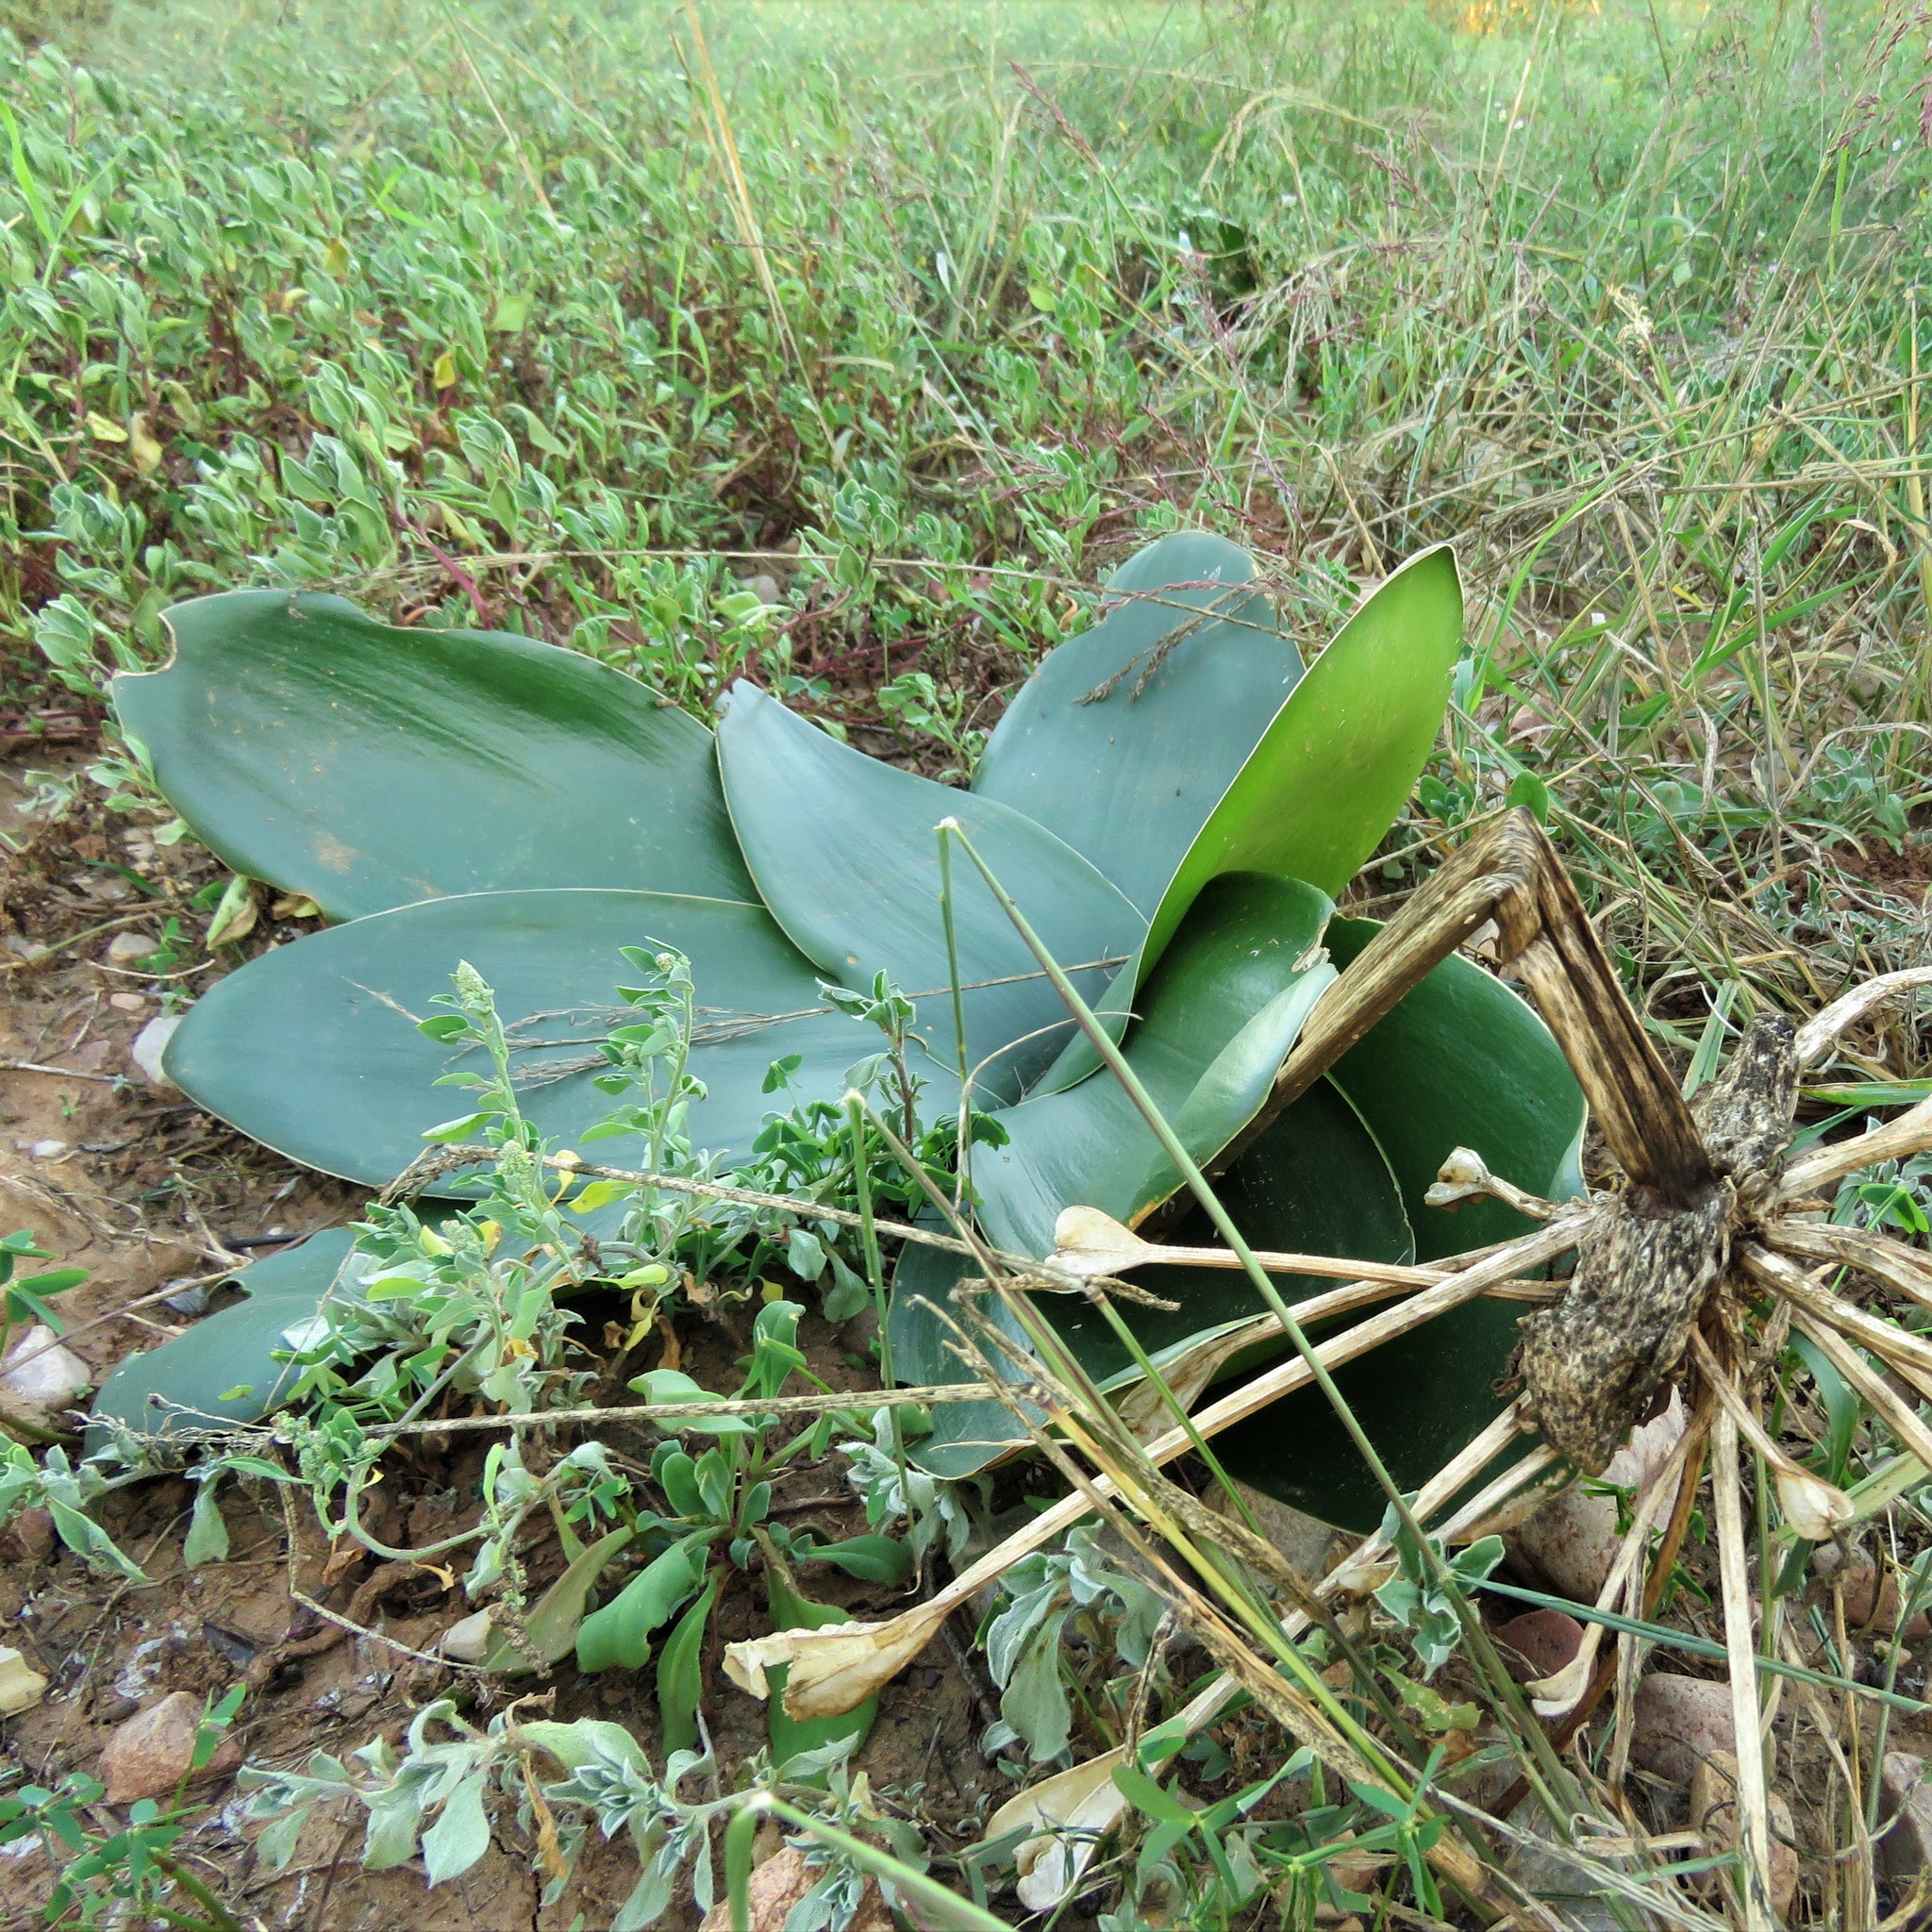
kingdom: Plantae
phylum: Tracheophyta
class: Liliopsida
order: Asparagales
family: Amaryllidaceae
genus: Brunsvigia
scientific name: Brunsvigia gregaria
